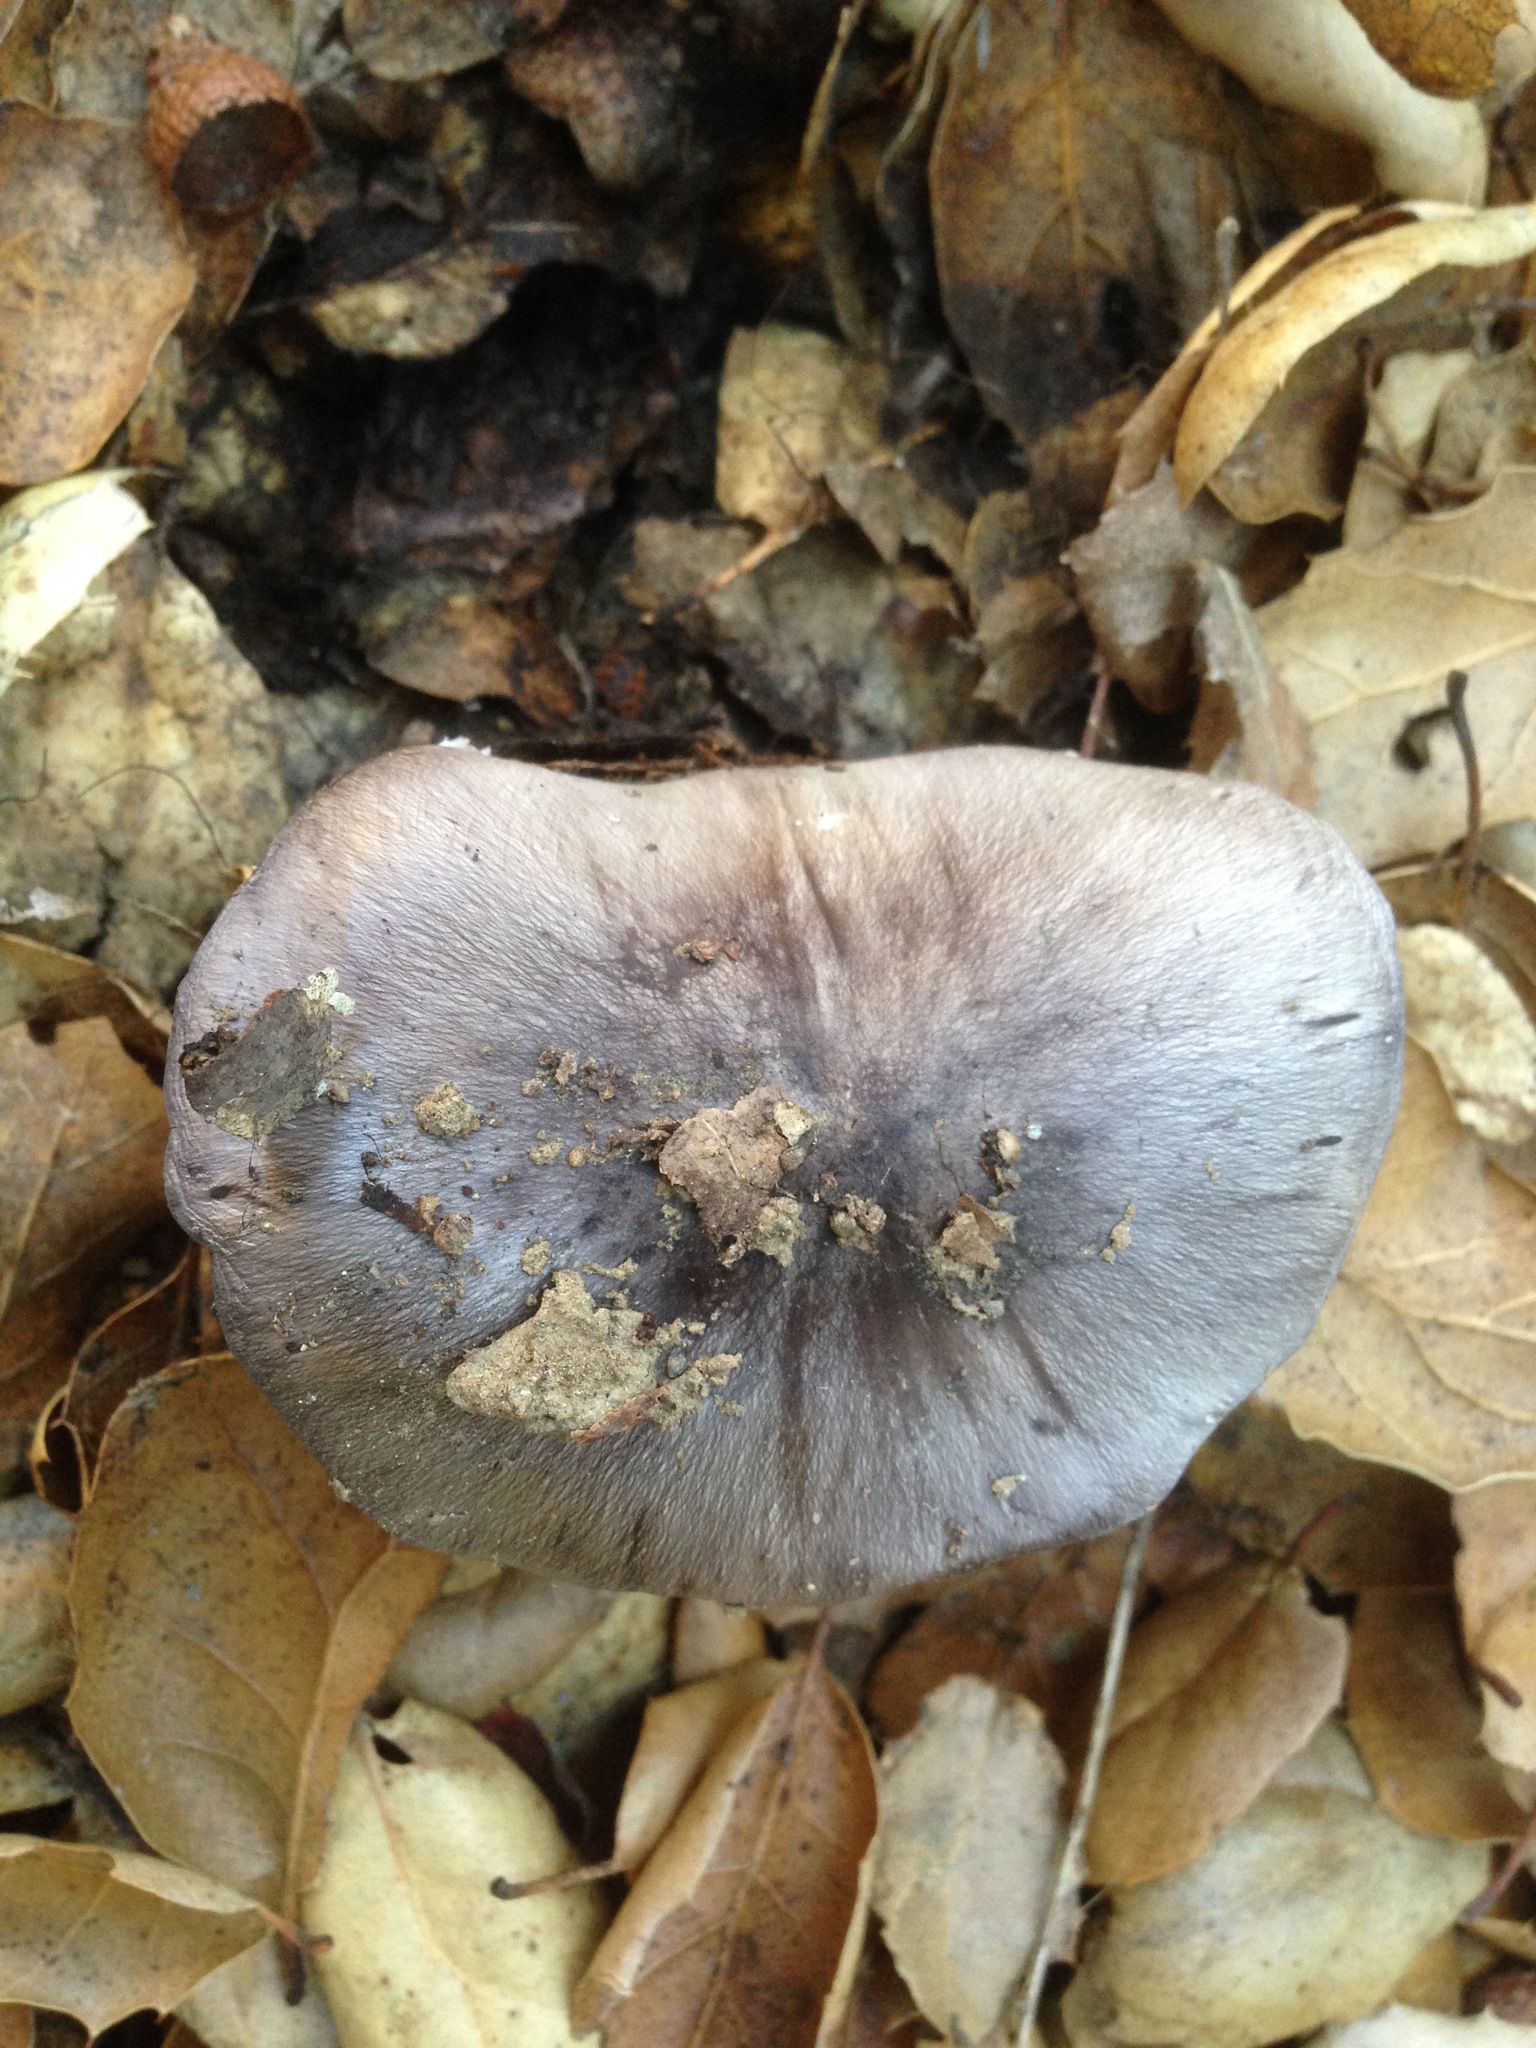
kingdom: Fungi
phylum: Basidiomycota
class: Agaricomycetes
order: Agaricales
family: Tricholomataceae
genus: Tricholoma
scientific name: Tricholoma griseoviolaceum
